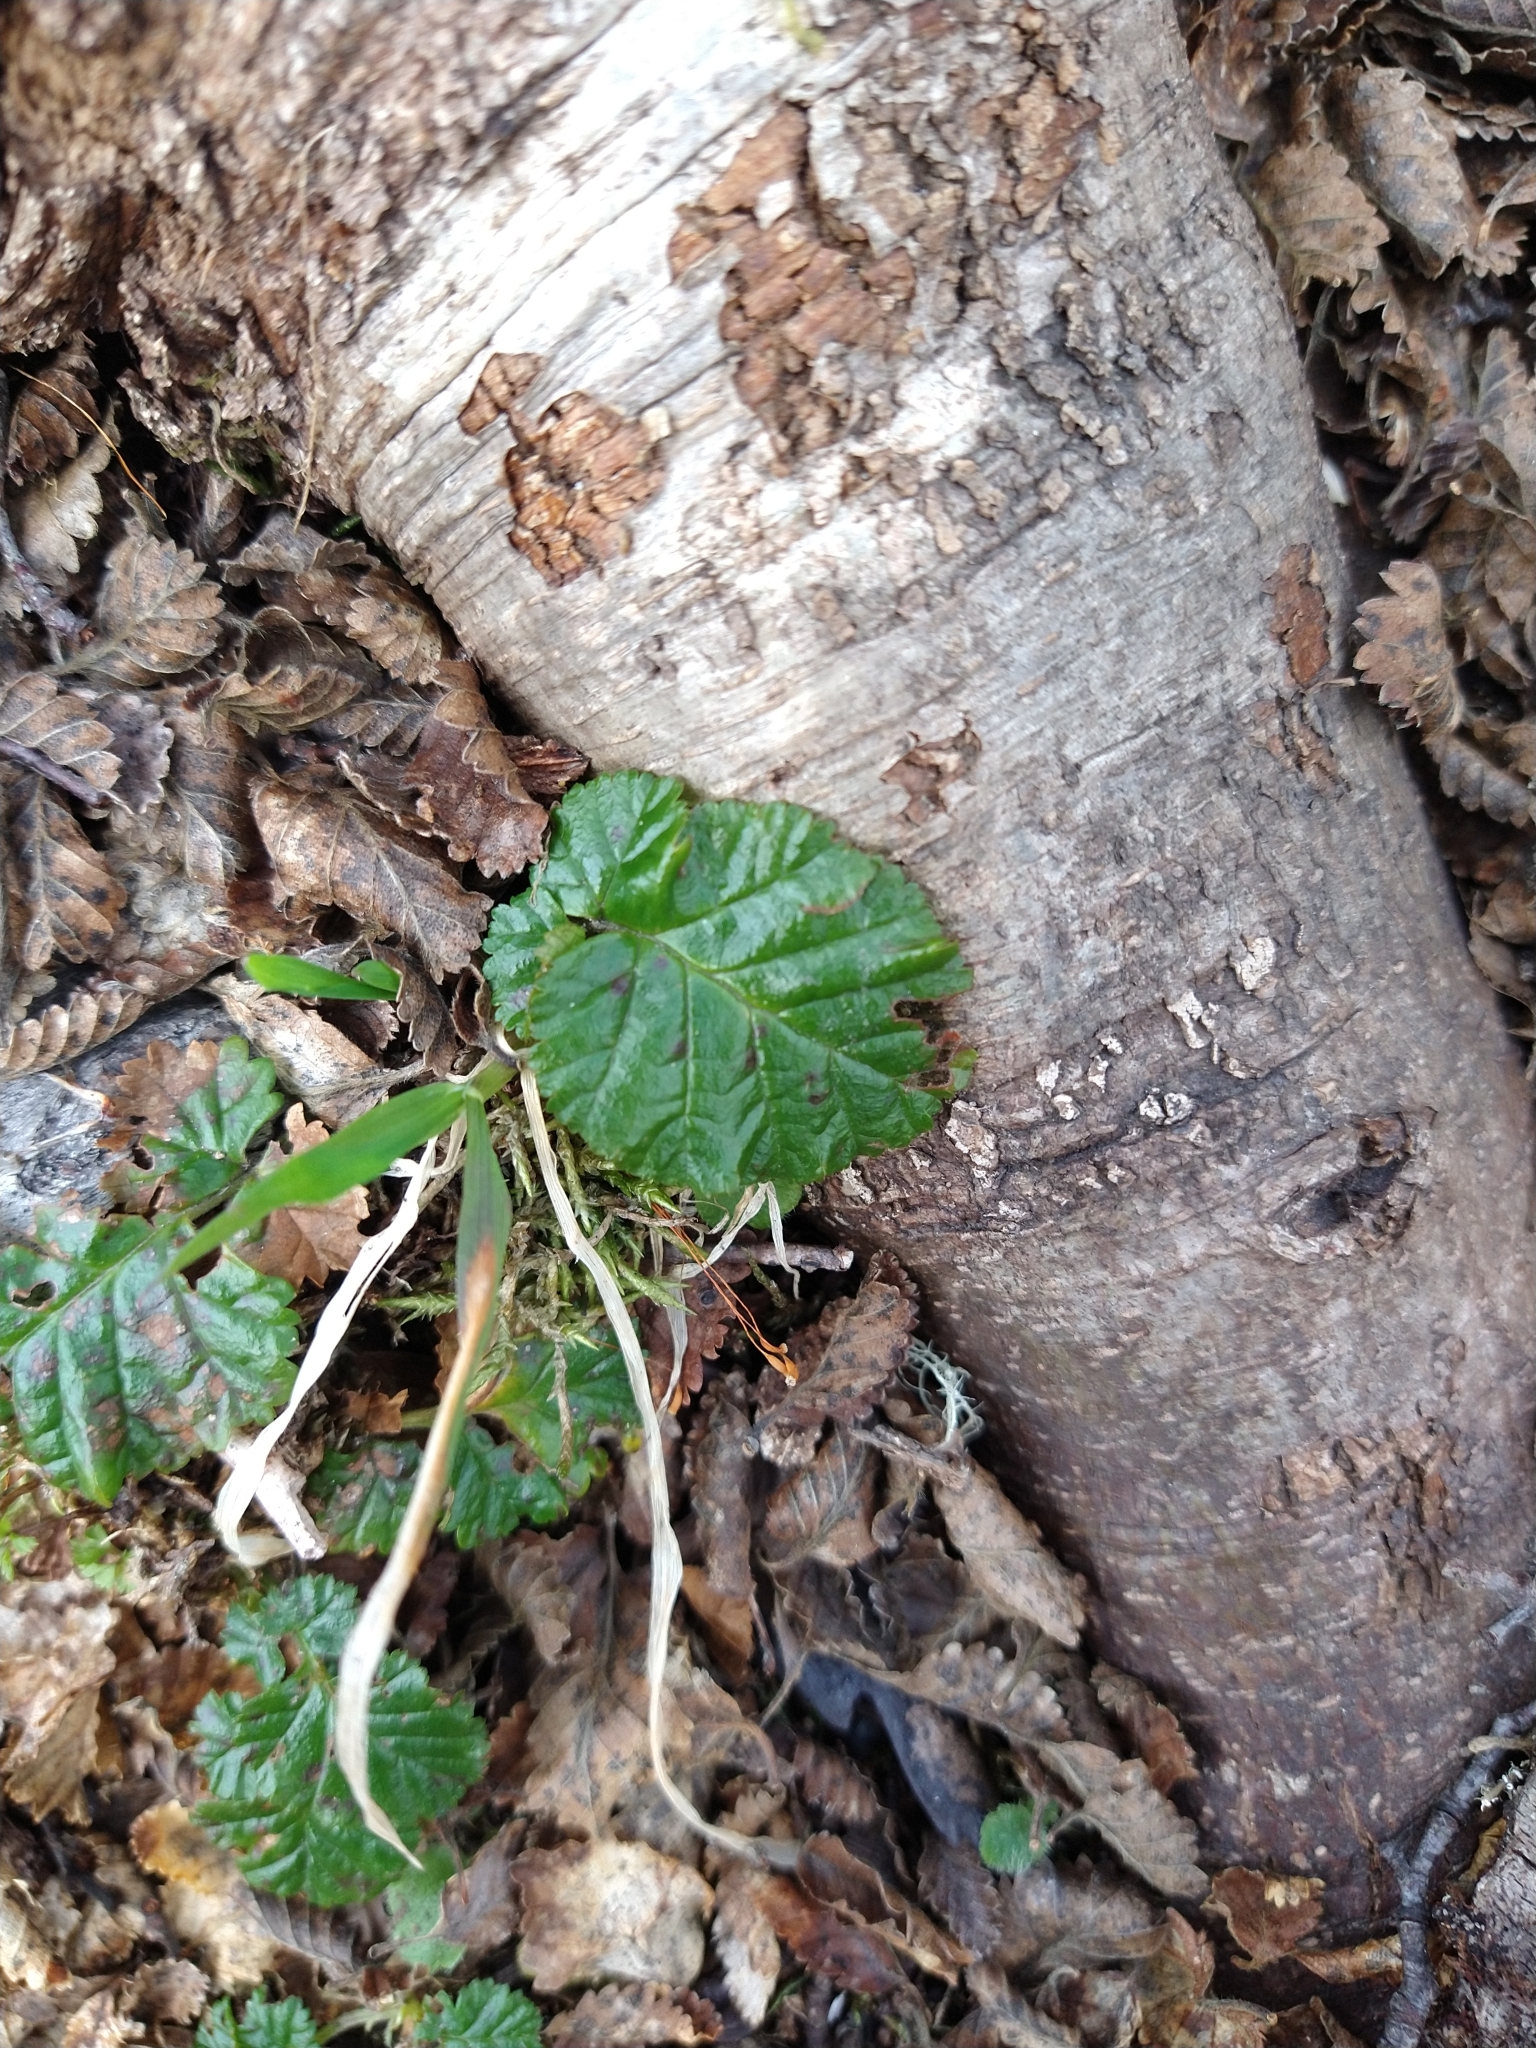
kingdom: Plantae
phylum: Tracheophyta
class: Magnoliopsida
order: Rosales
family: Rosaceae
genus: Rubus
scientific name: Rubus geoides
